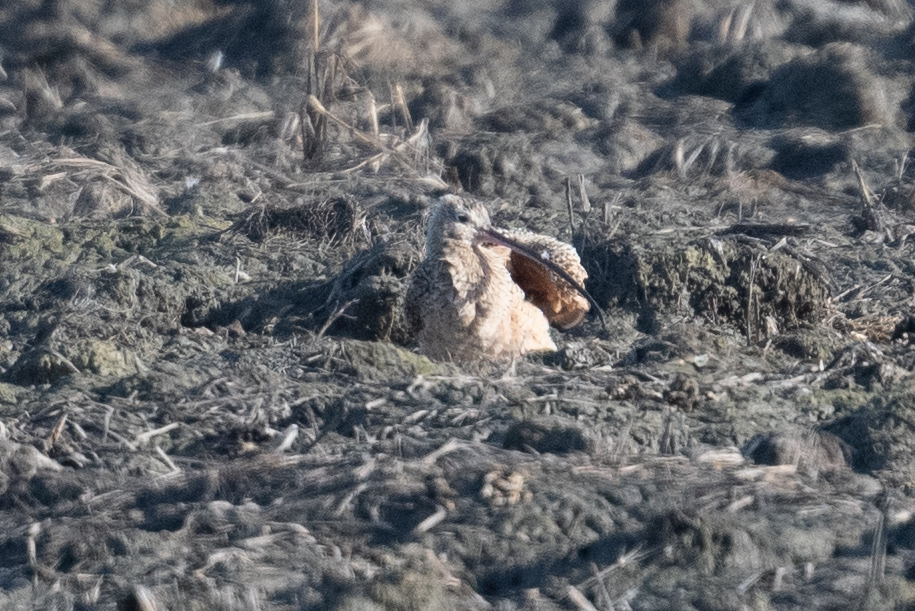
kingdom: Animalia
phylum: Chordata
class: Aves
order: Charadriiformes
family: Scolopacidae
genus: Numenius
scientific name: Numenius americanus
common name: Long-billed curlew
